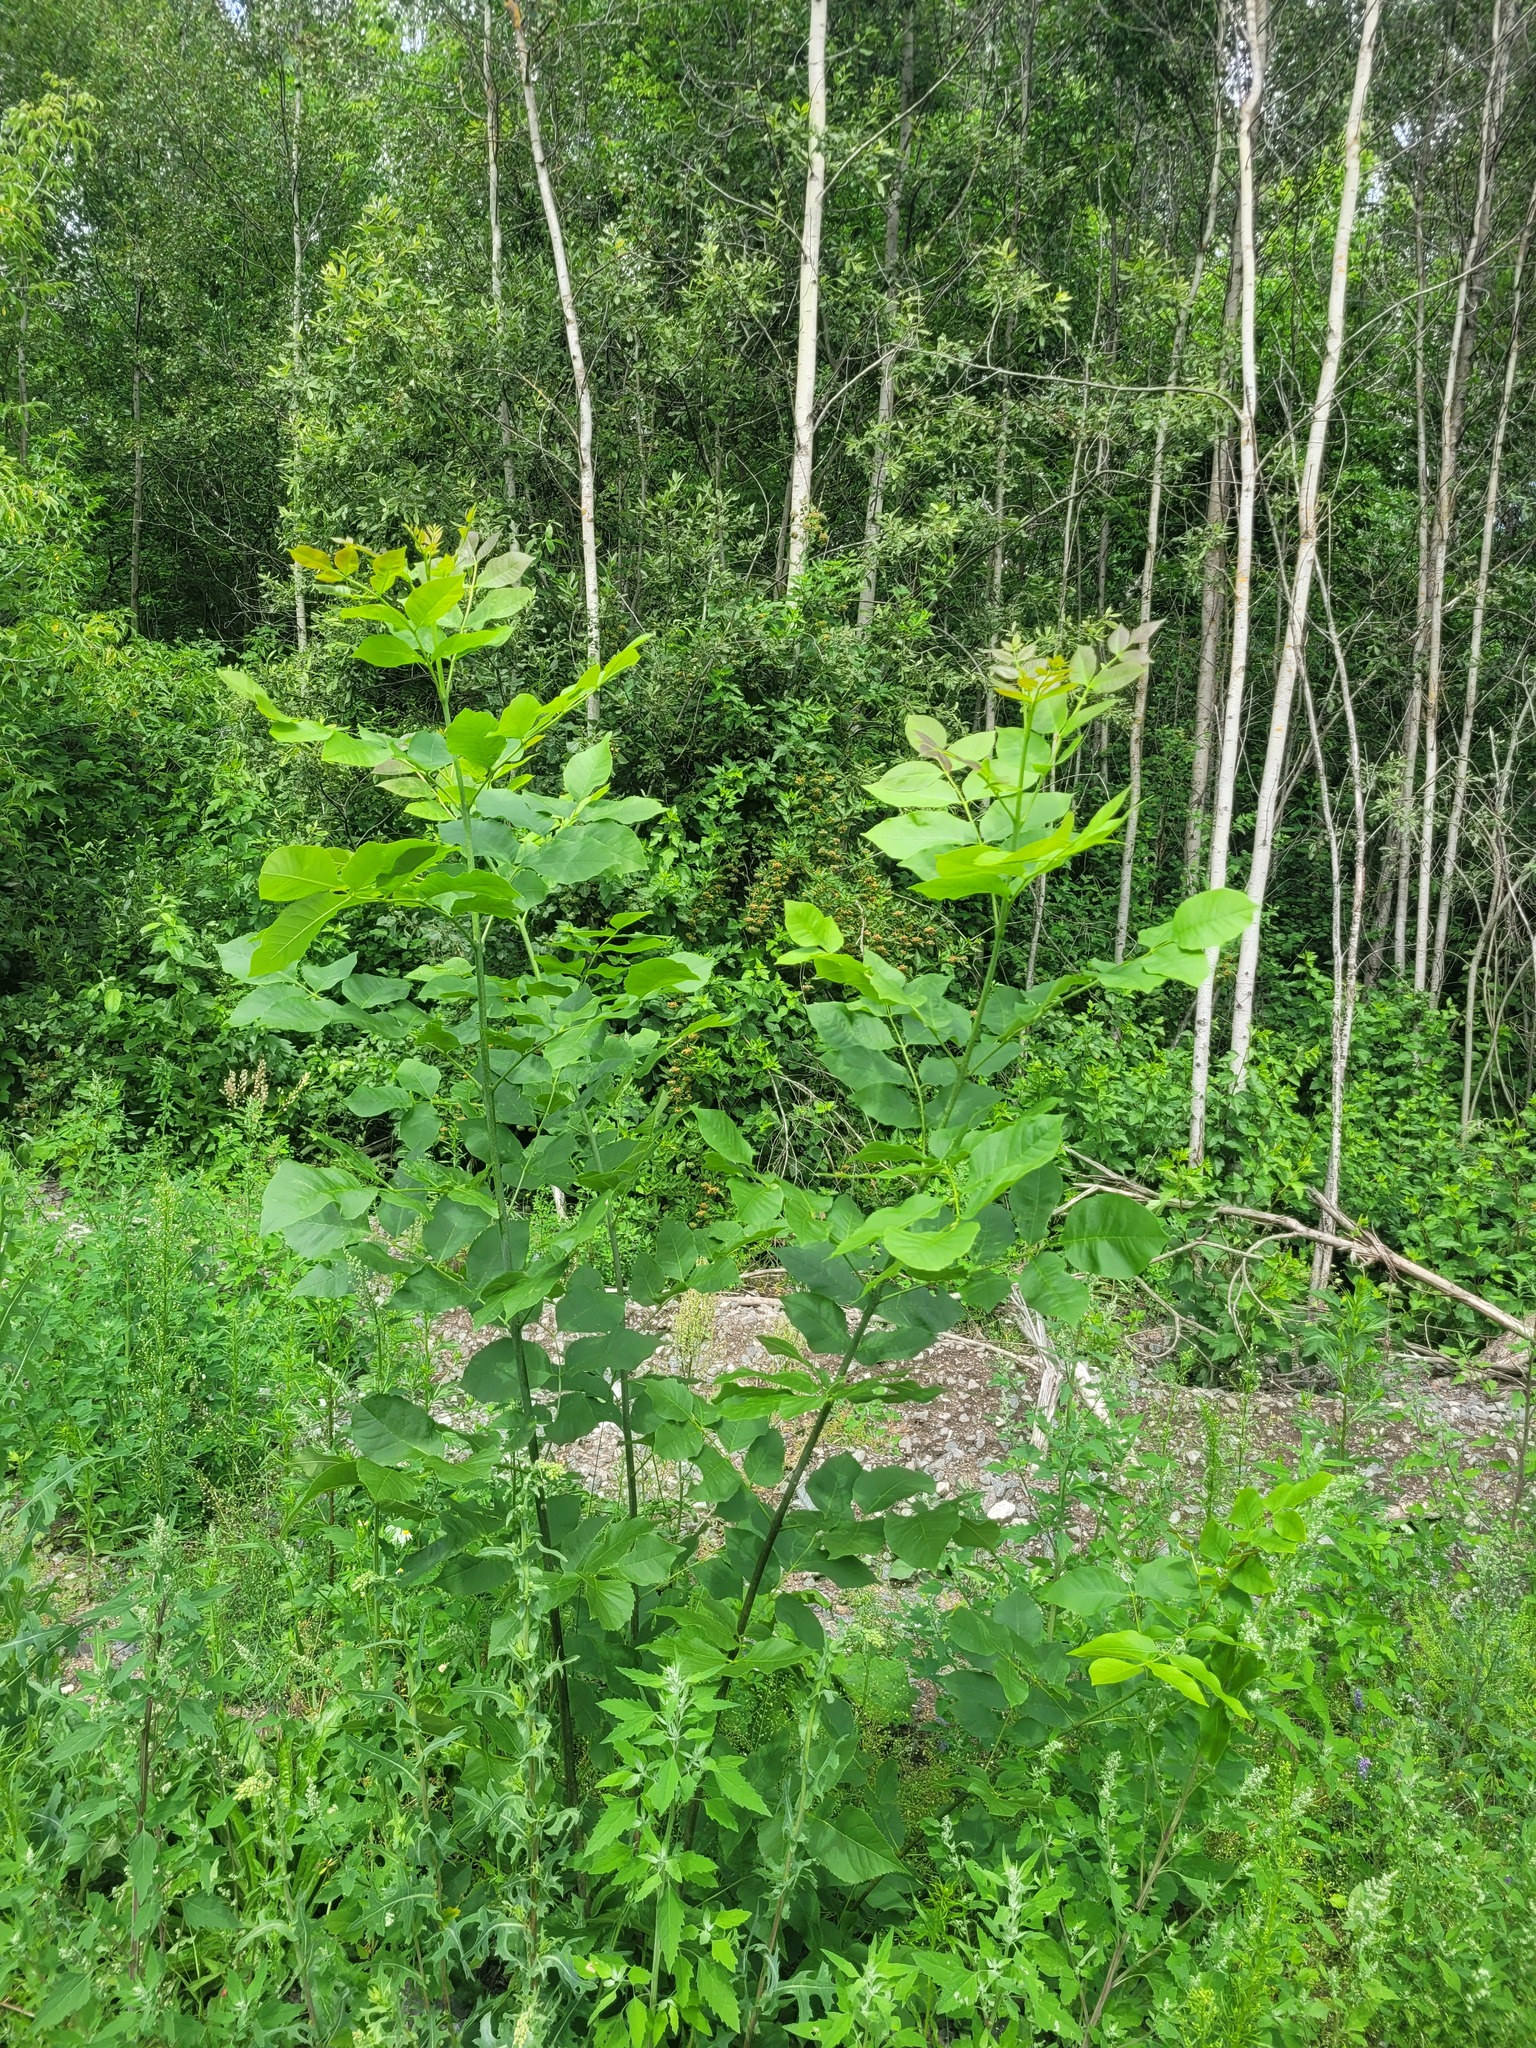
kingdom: Plantae
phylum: Tracheophyta
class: Magnoliopsida
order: Lamiales
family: Oleaceae
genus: Fraxinus
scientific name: Fraxinus pennsylvanica
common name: Green ash
